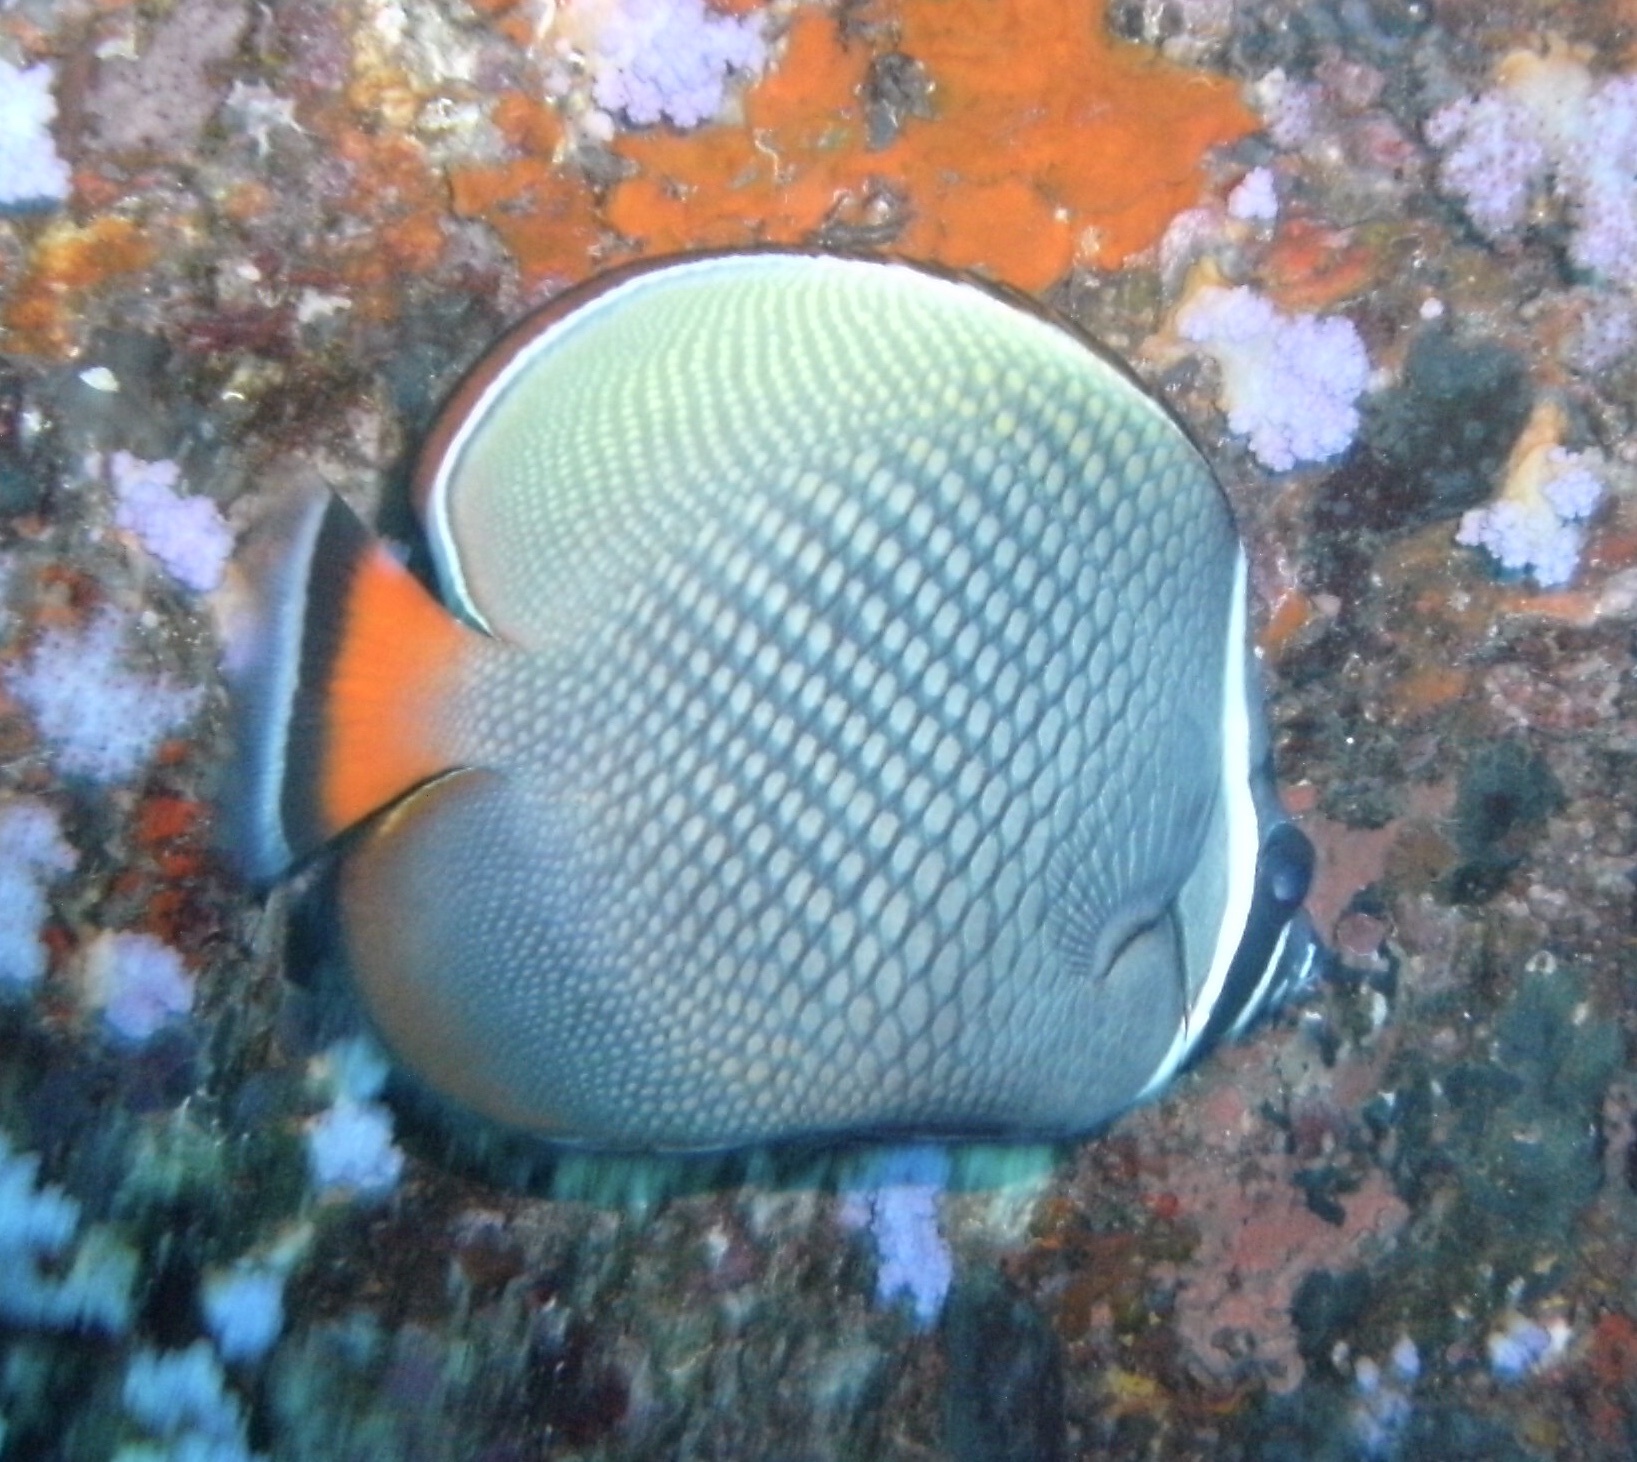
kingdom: Animalia
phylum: Chordata
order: Perciformes
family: Chaetodontidae
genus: Chaetodon
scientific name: Chaetodon collare
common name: Redtail butterflyfish
